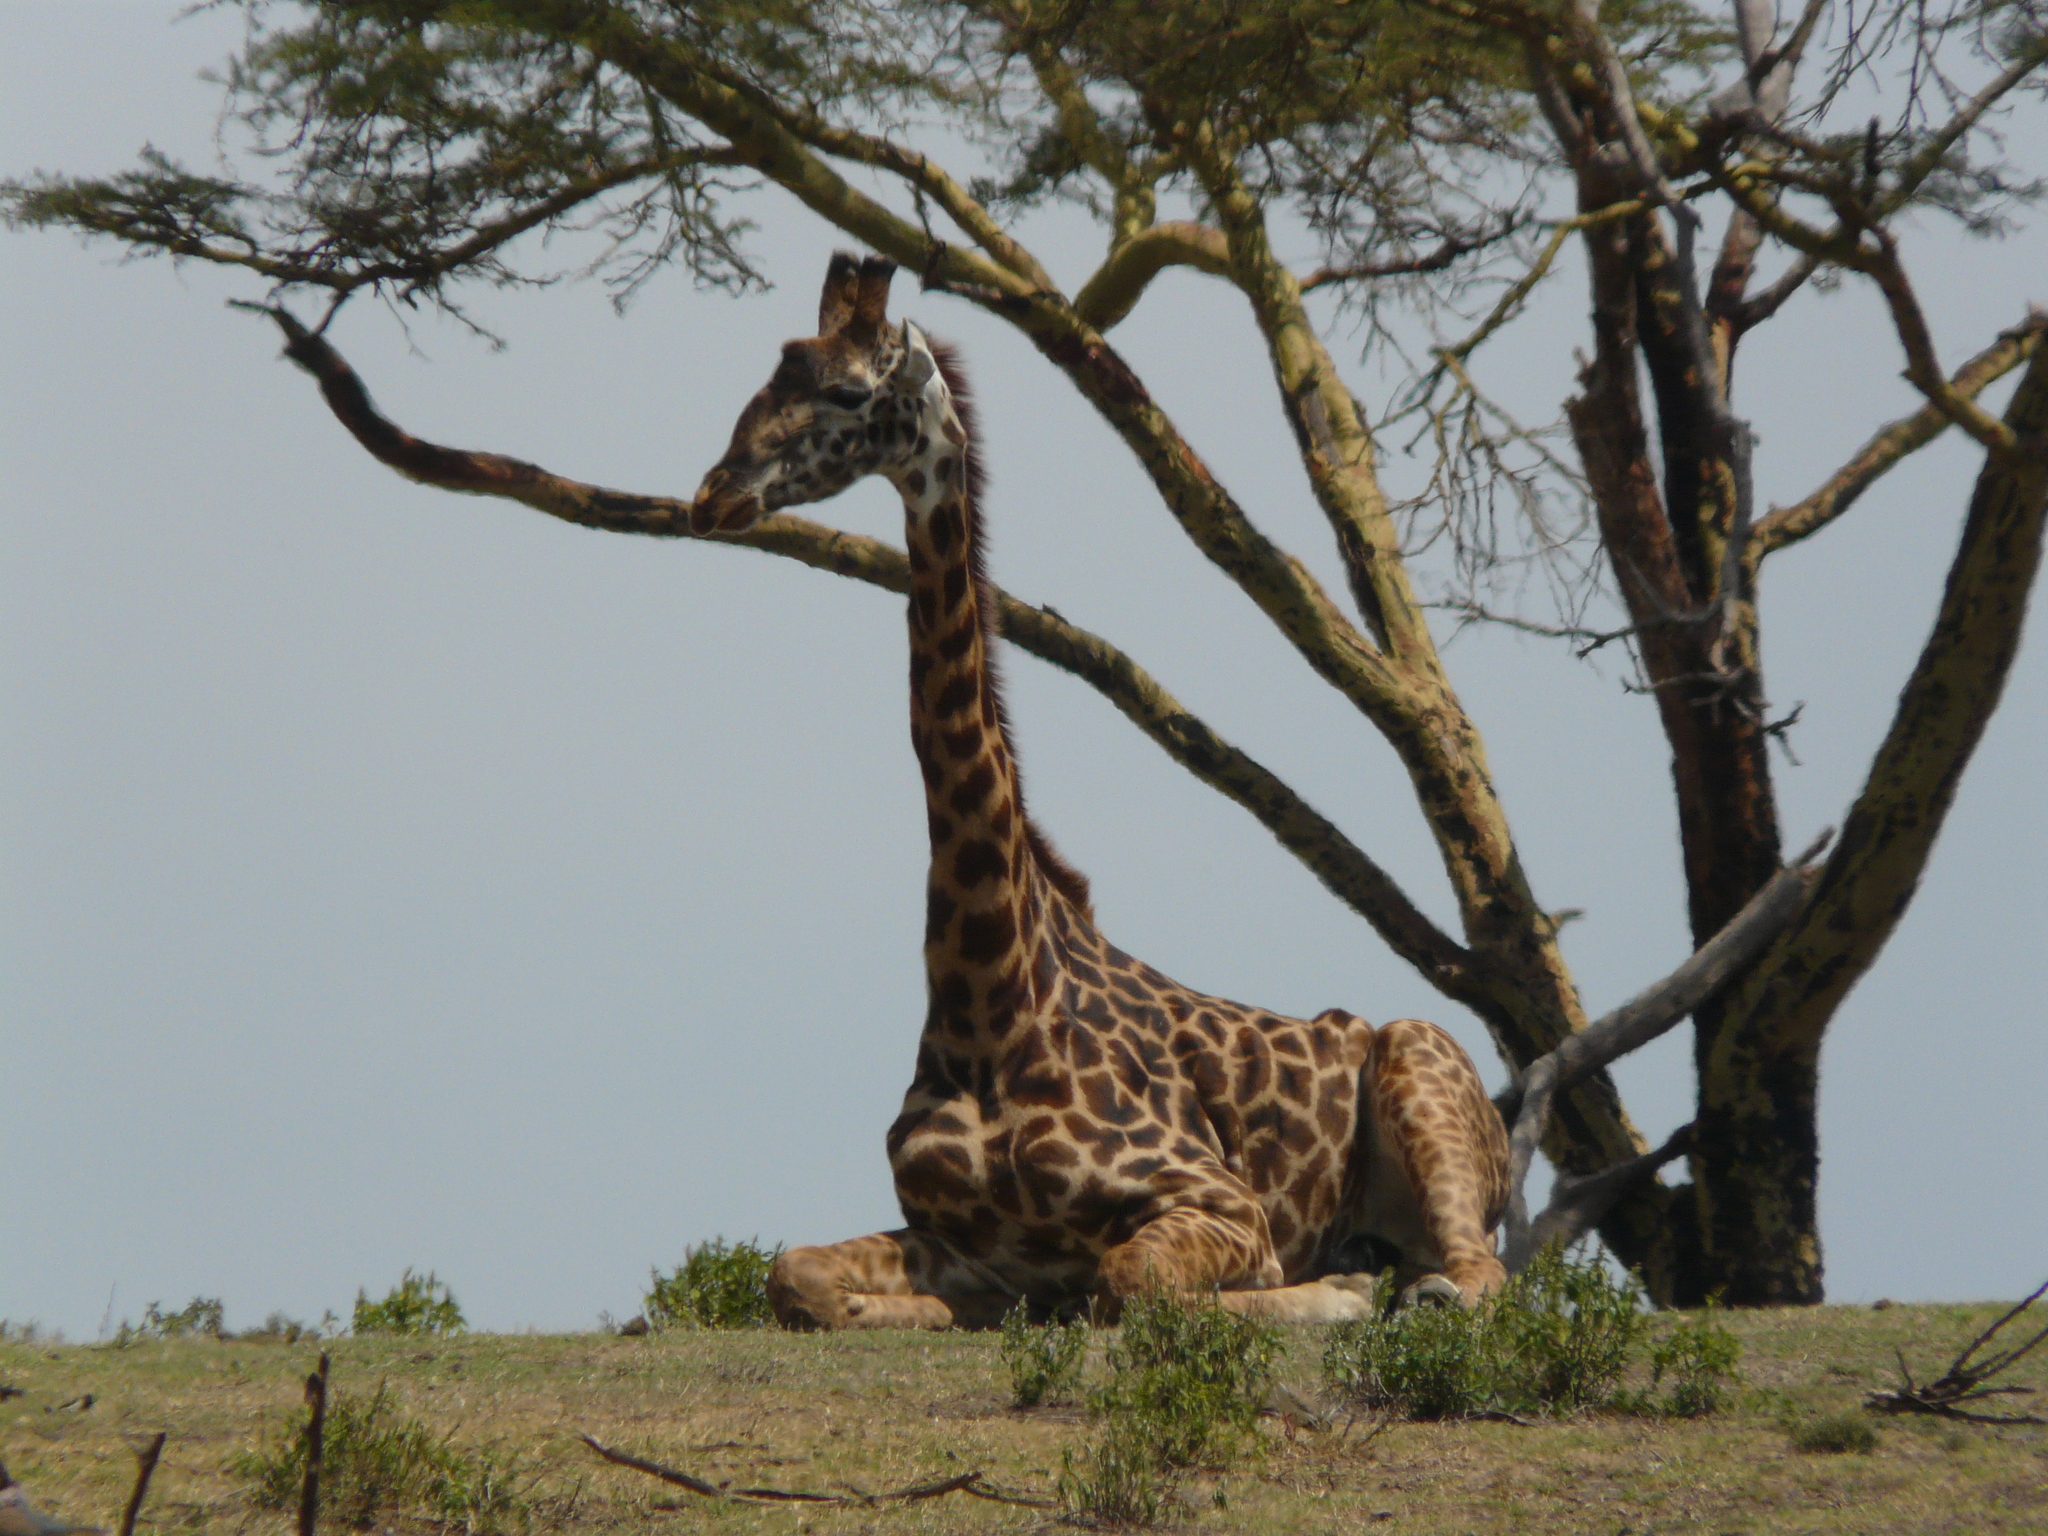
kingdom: Animalia
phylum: Chordata
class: Mammalia
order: Artiodactyla
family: Giraffidae
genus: Giraffa
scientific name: Giraffa tippelskirchi
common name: Masai giraffe
